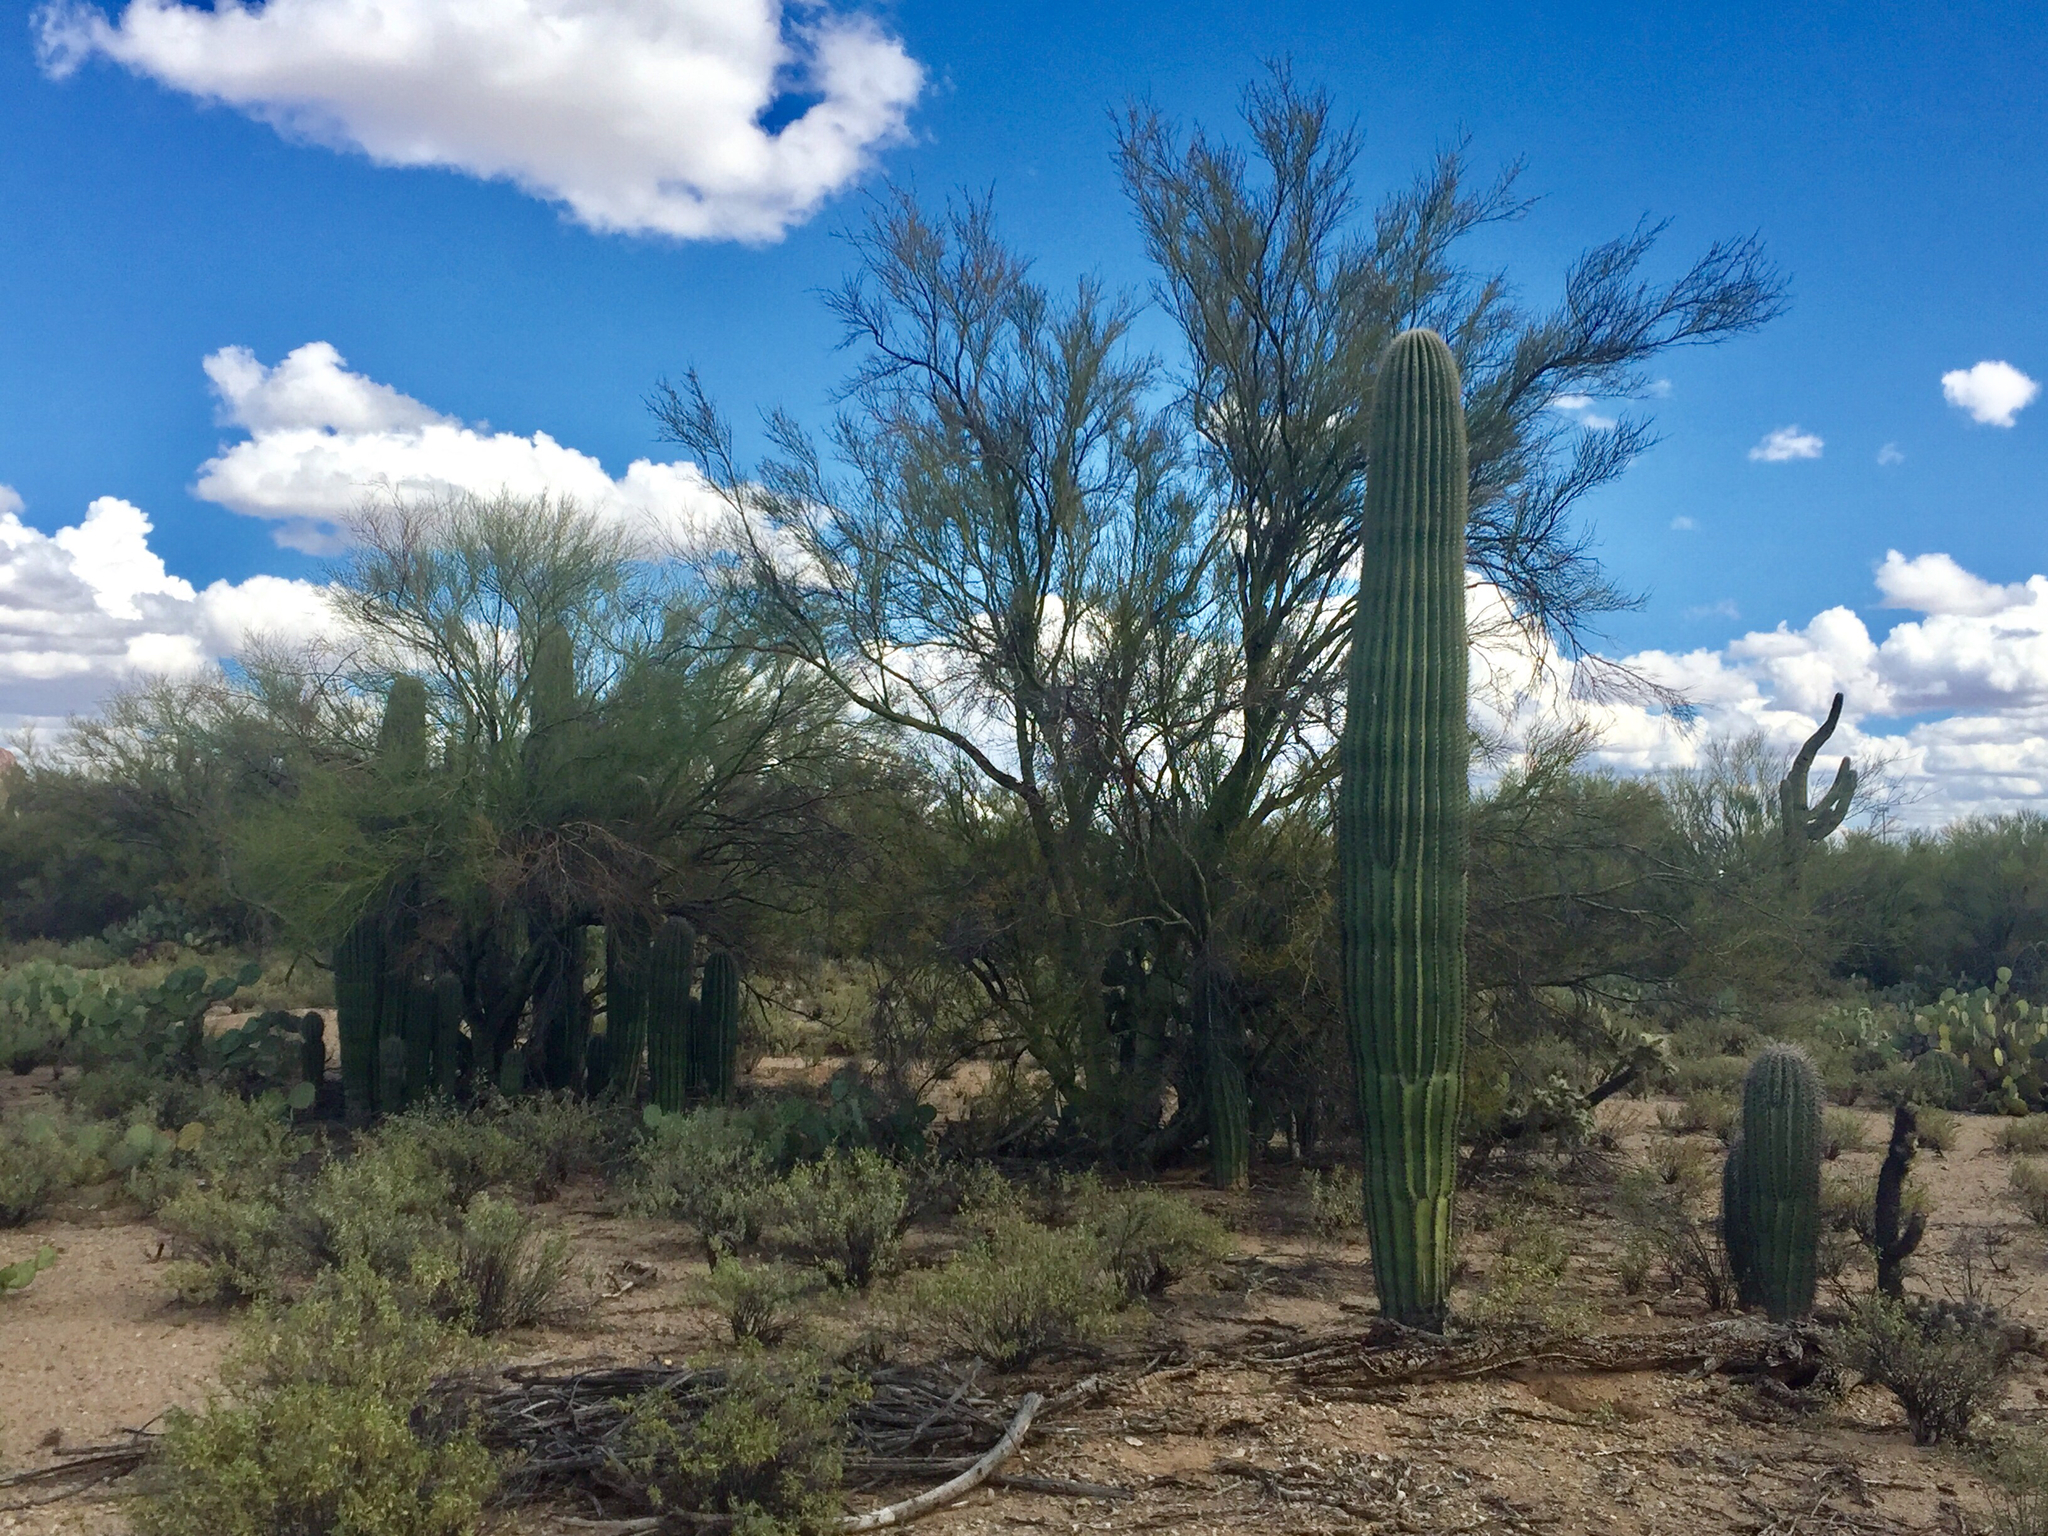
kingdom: Plantae
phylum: Tracheophyta
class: Magnoliopsida
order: Caryophyllales
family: Cactaceae
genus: Carnegiea
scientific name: Carnegiea gigantea
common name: Saguaro
